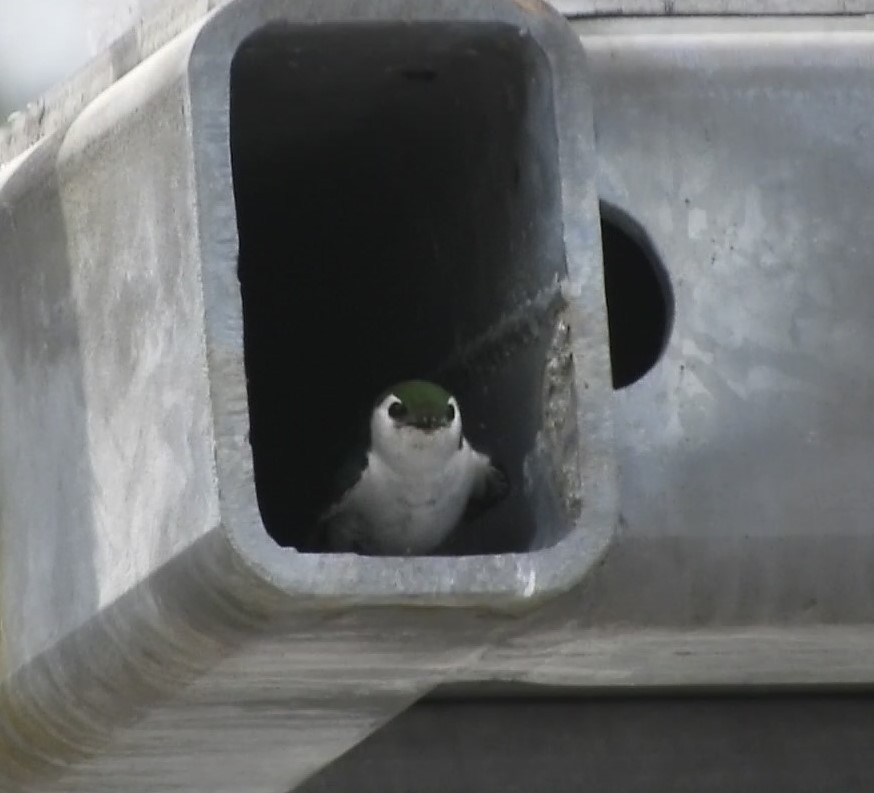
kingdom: Animalia
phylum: Chordata
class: Aves
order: Passeriformes
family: Hirundinidae
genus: Tachycineta
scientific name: Tachycineta thalassina
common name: Violet-green swallow
